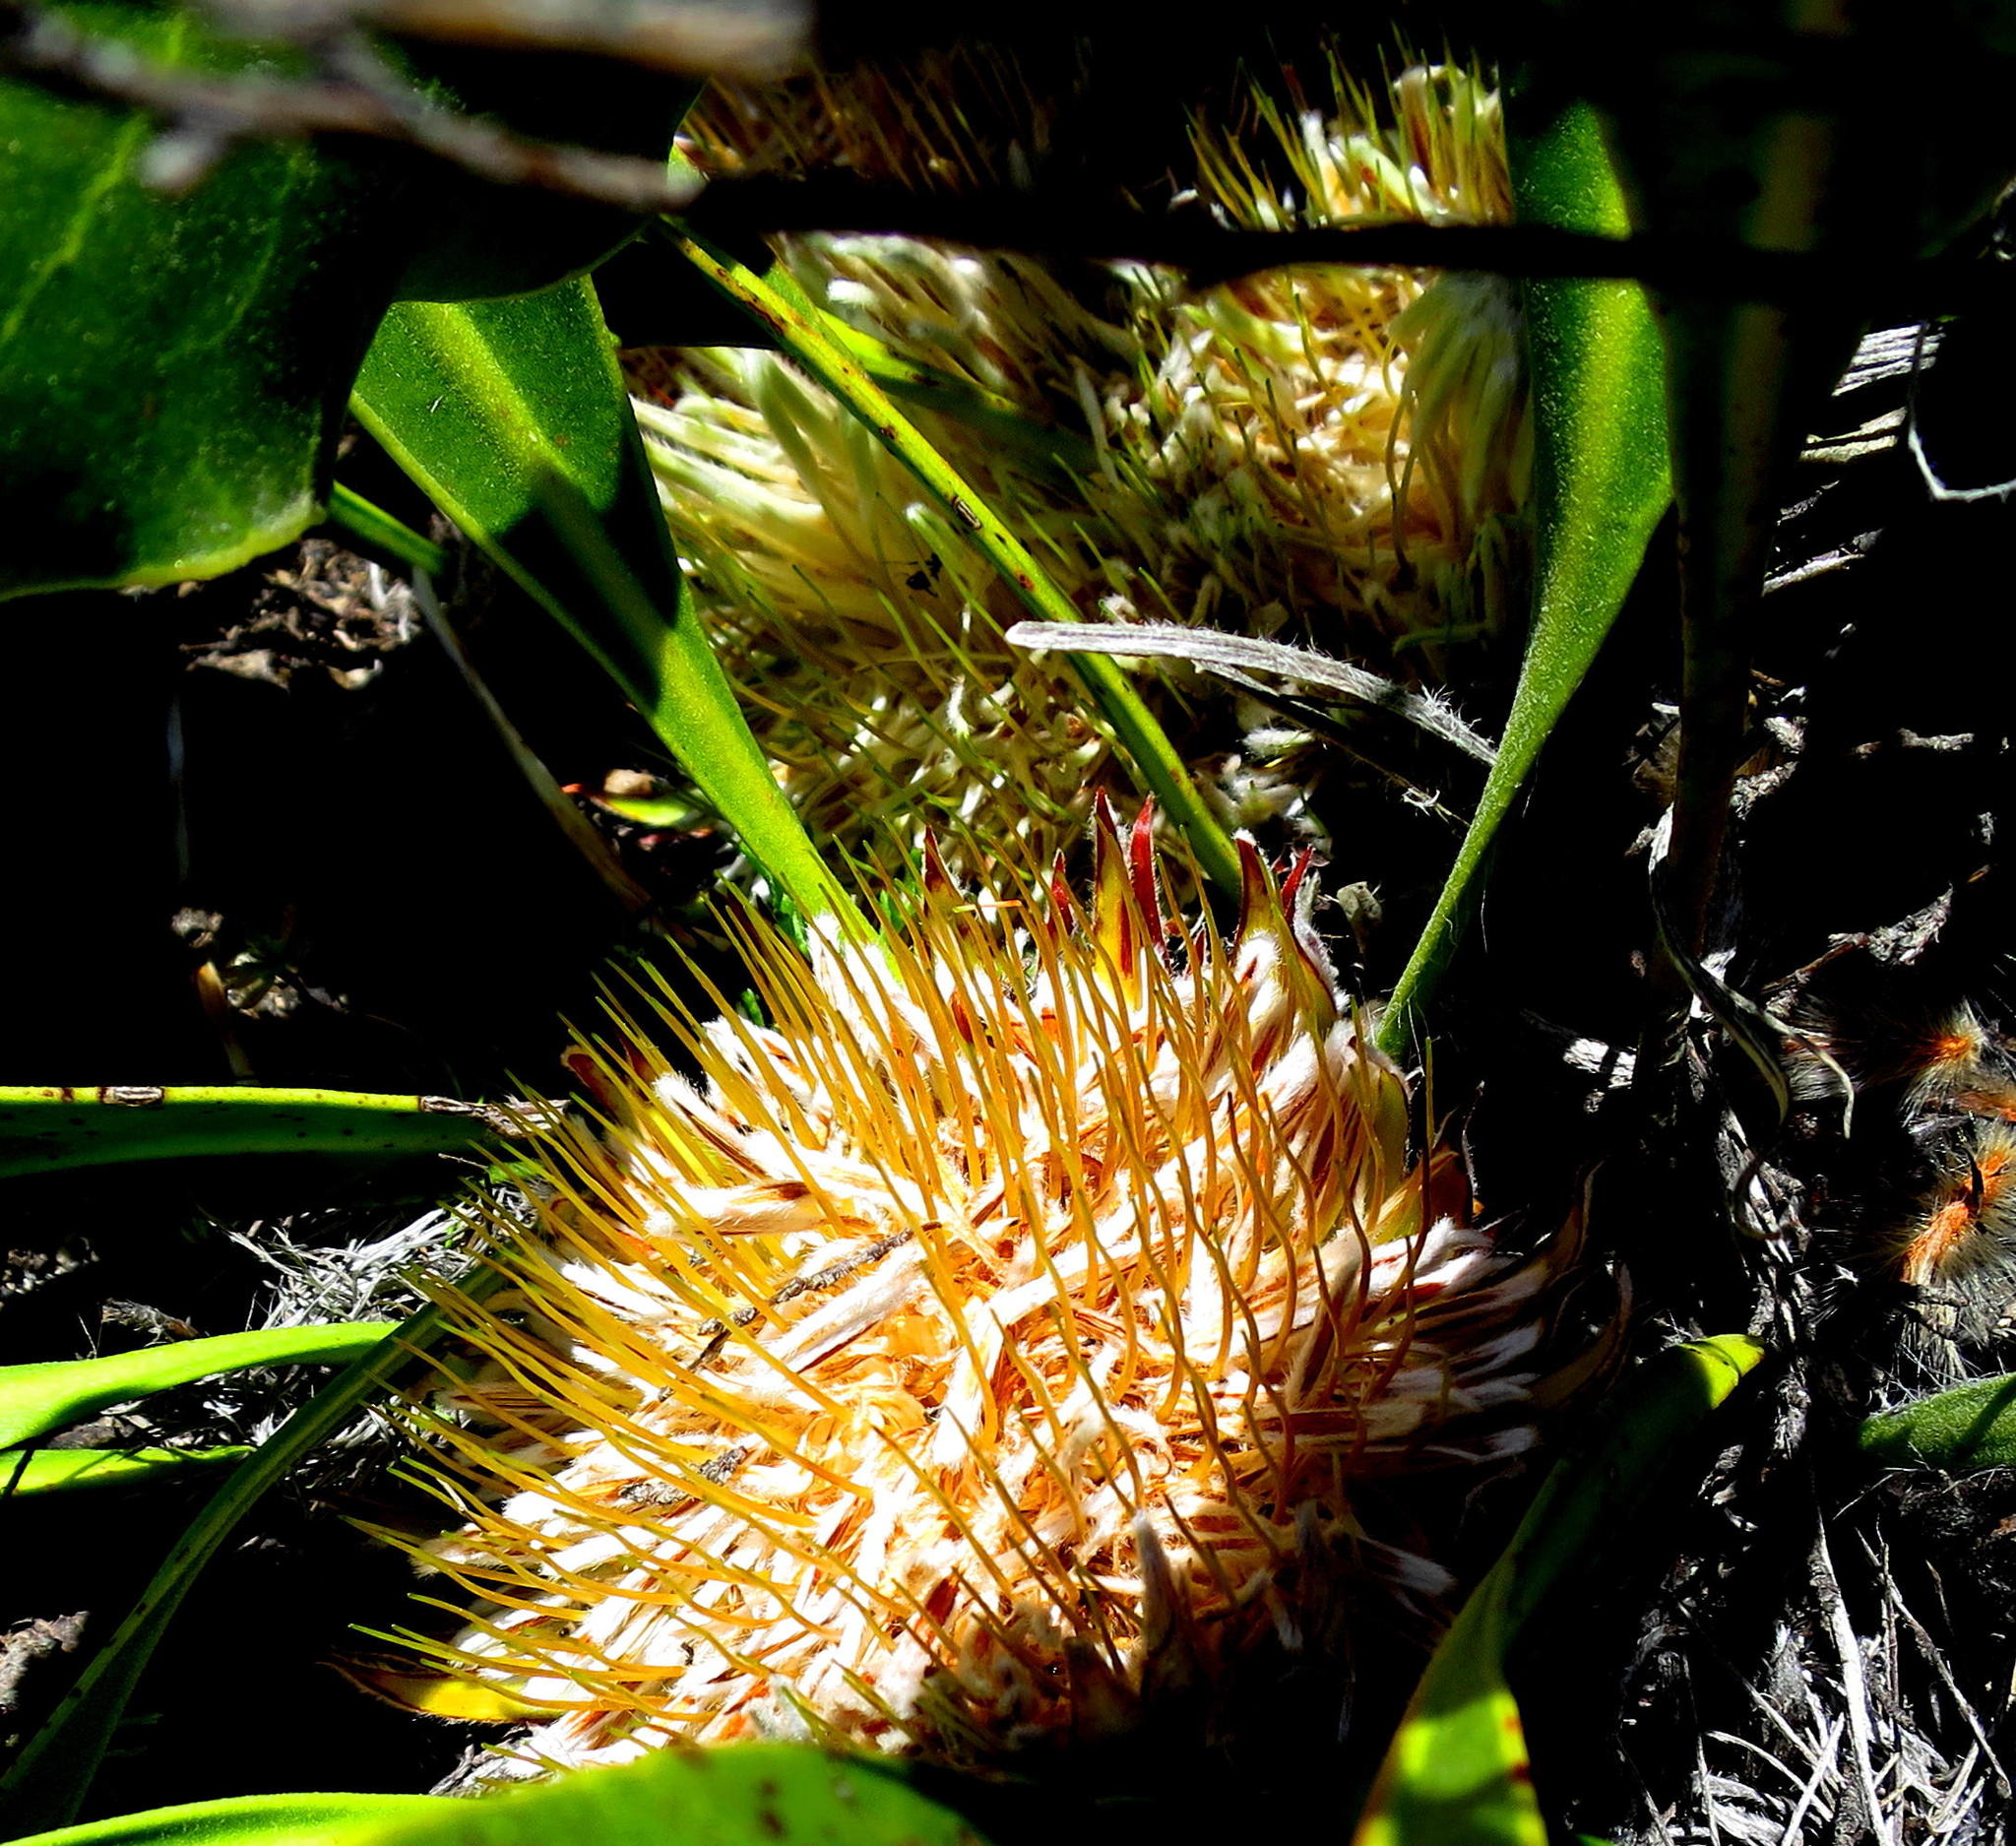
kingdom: Plantae
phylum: Tracheophyta
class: Magnoliopsida
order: Proteales
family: Proteaceae
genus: Protea
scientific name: Protea scolopendriifolia
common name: Harts-tongue-fern sugarbush
